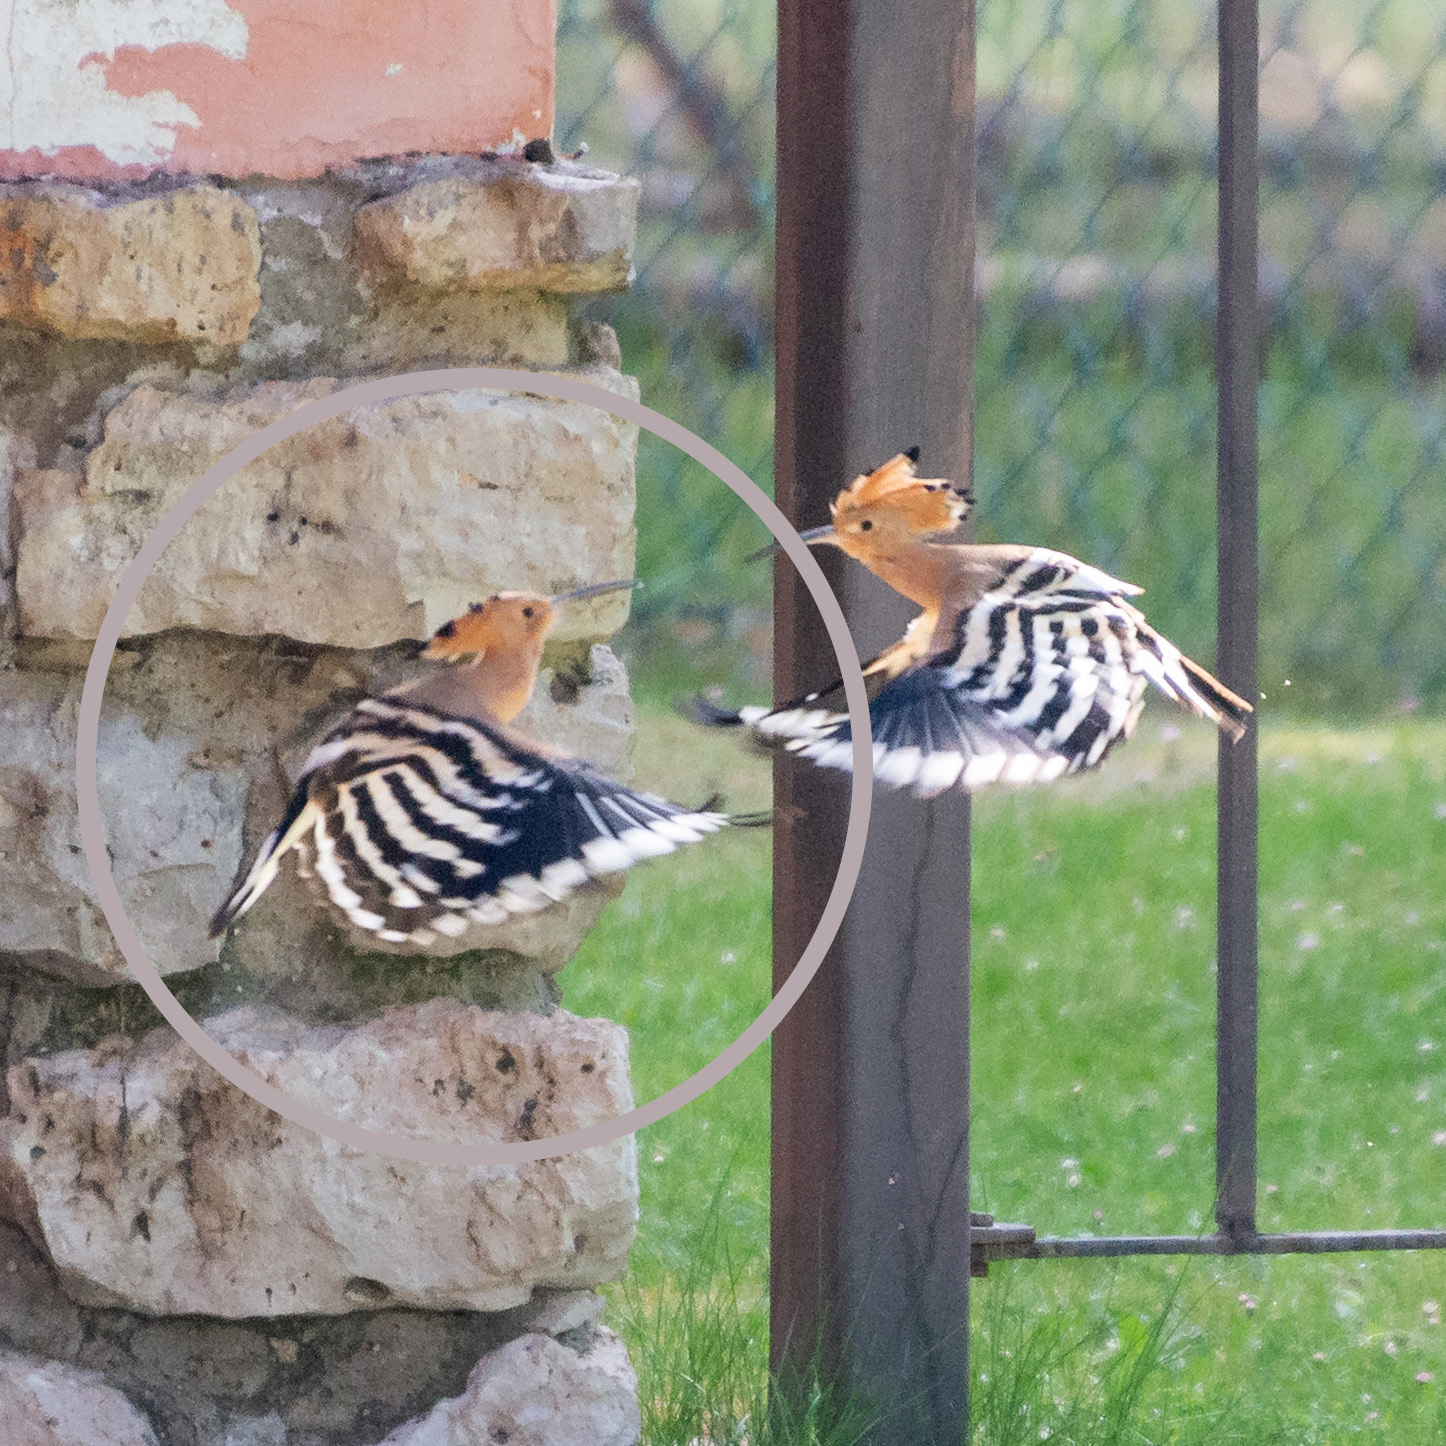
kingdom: Animalia
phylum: Chordata
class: Aves
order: Bucerotiformes
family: Upupidae
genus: Upupa
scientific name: Upupa epops
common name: Eurasian hoopoe
